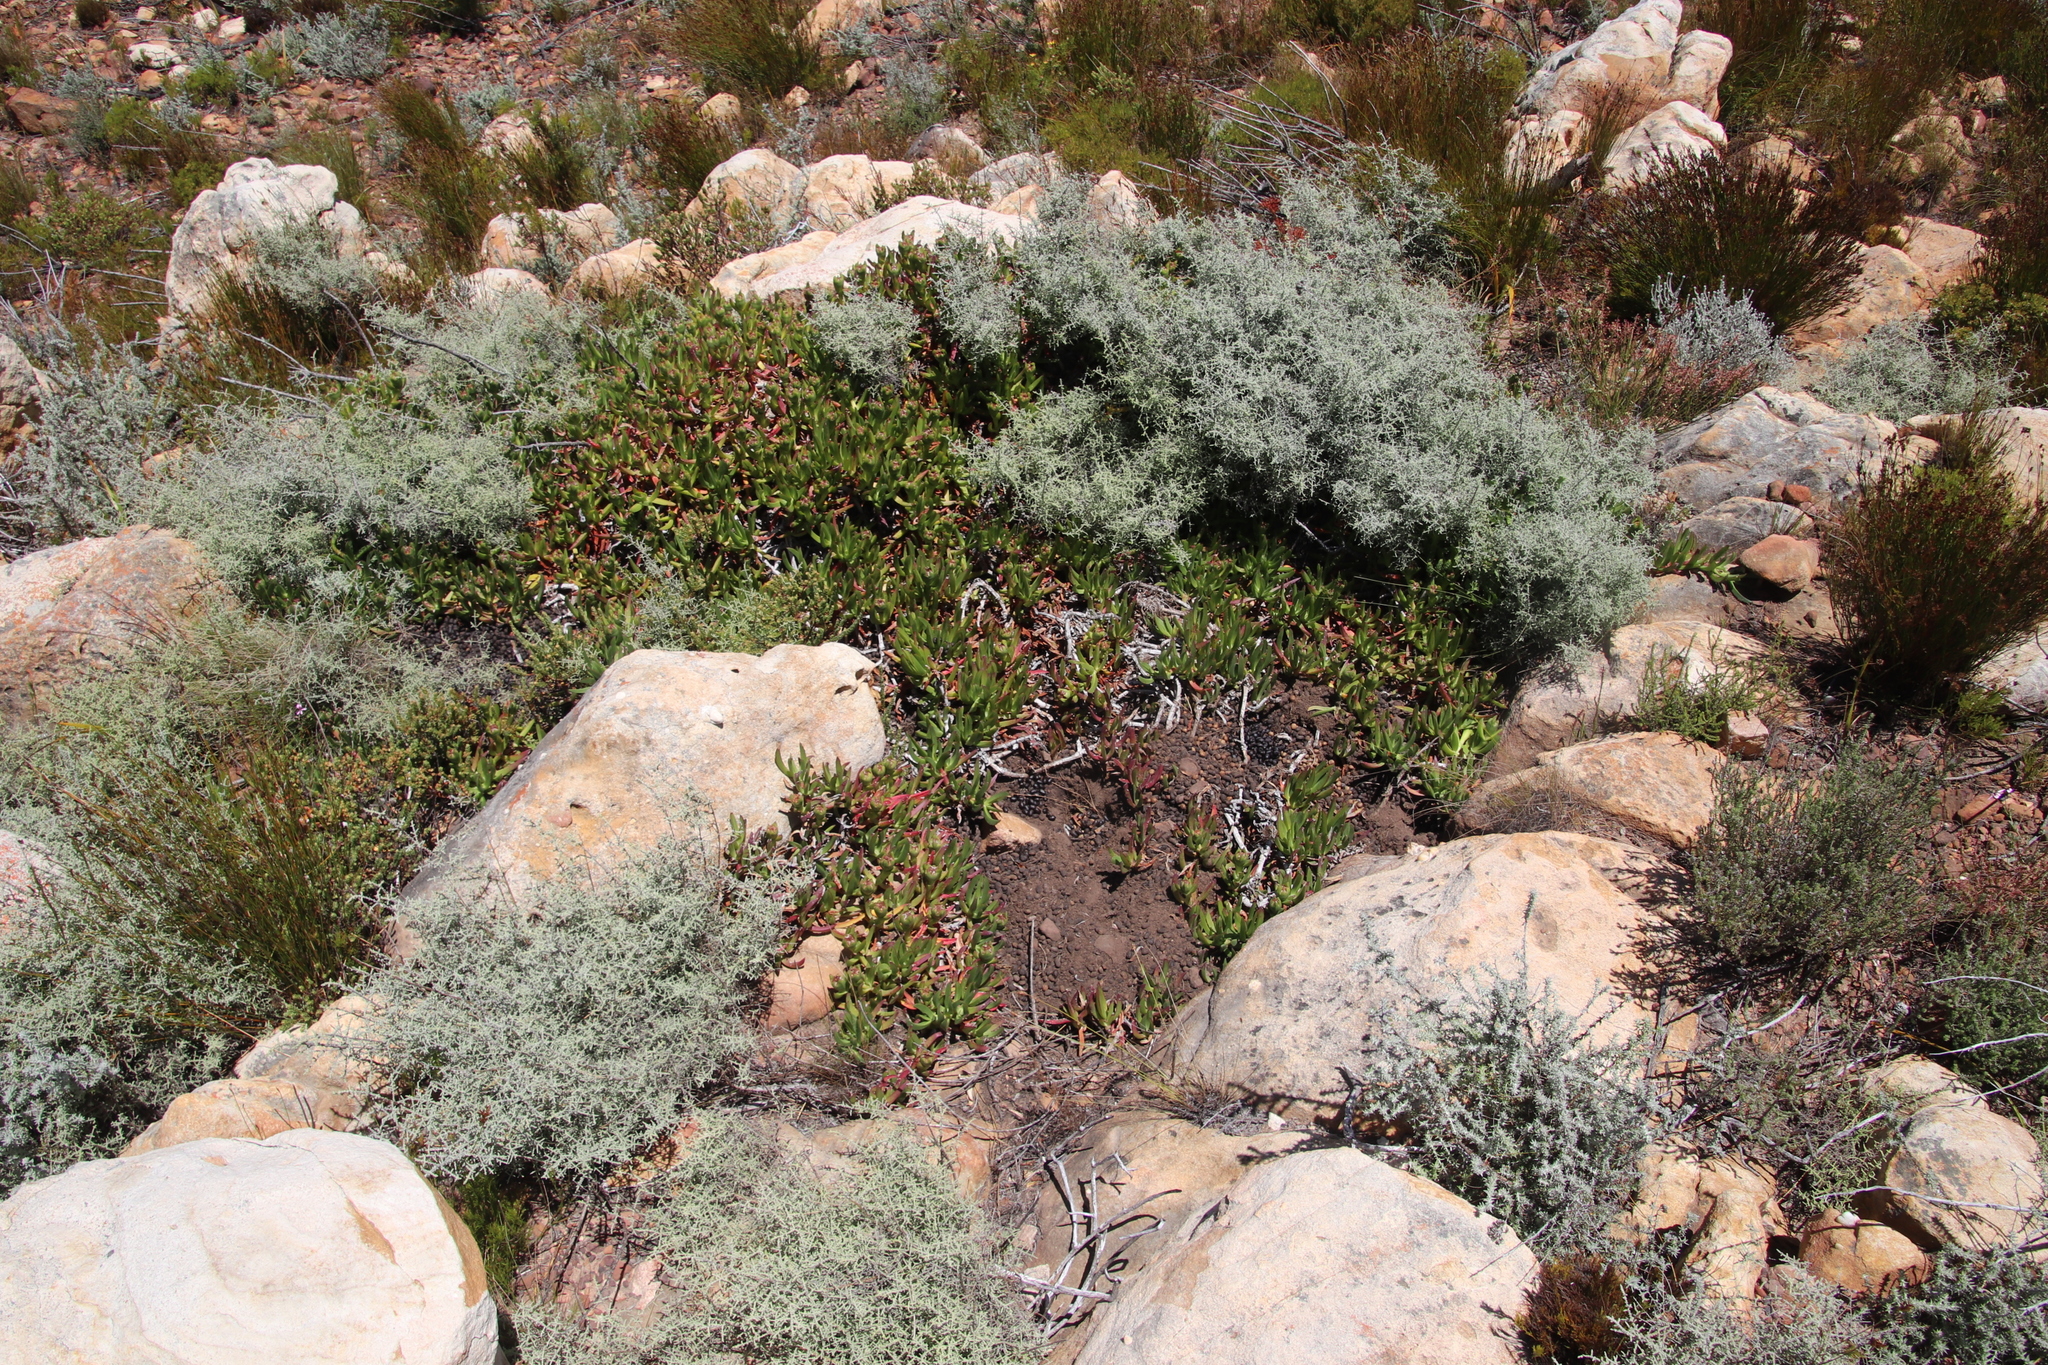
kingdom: Animalia
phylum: Chordata
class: Mammalia
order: Lagomorpha
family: Leporidae
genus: Pronolagus
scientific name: Pronolagus saundersiae
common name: Hewitt's red rock hare
